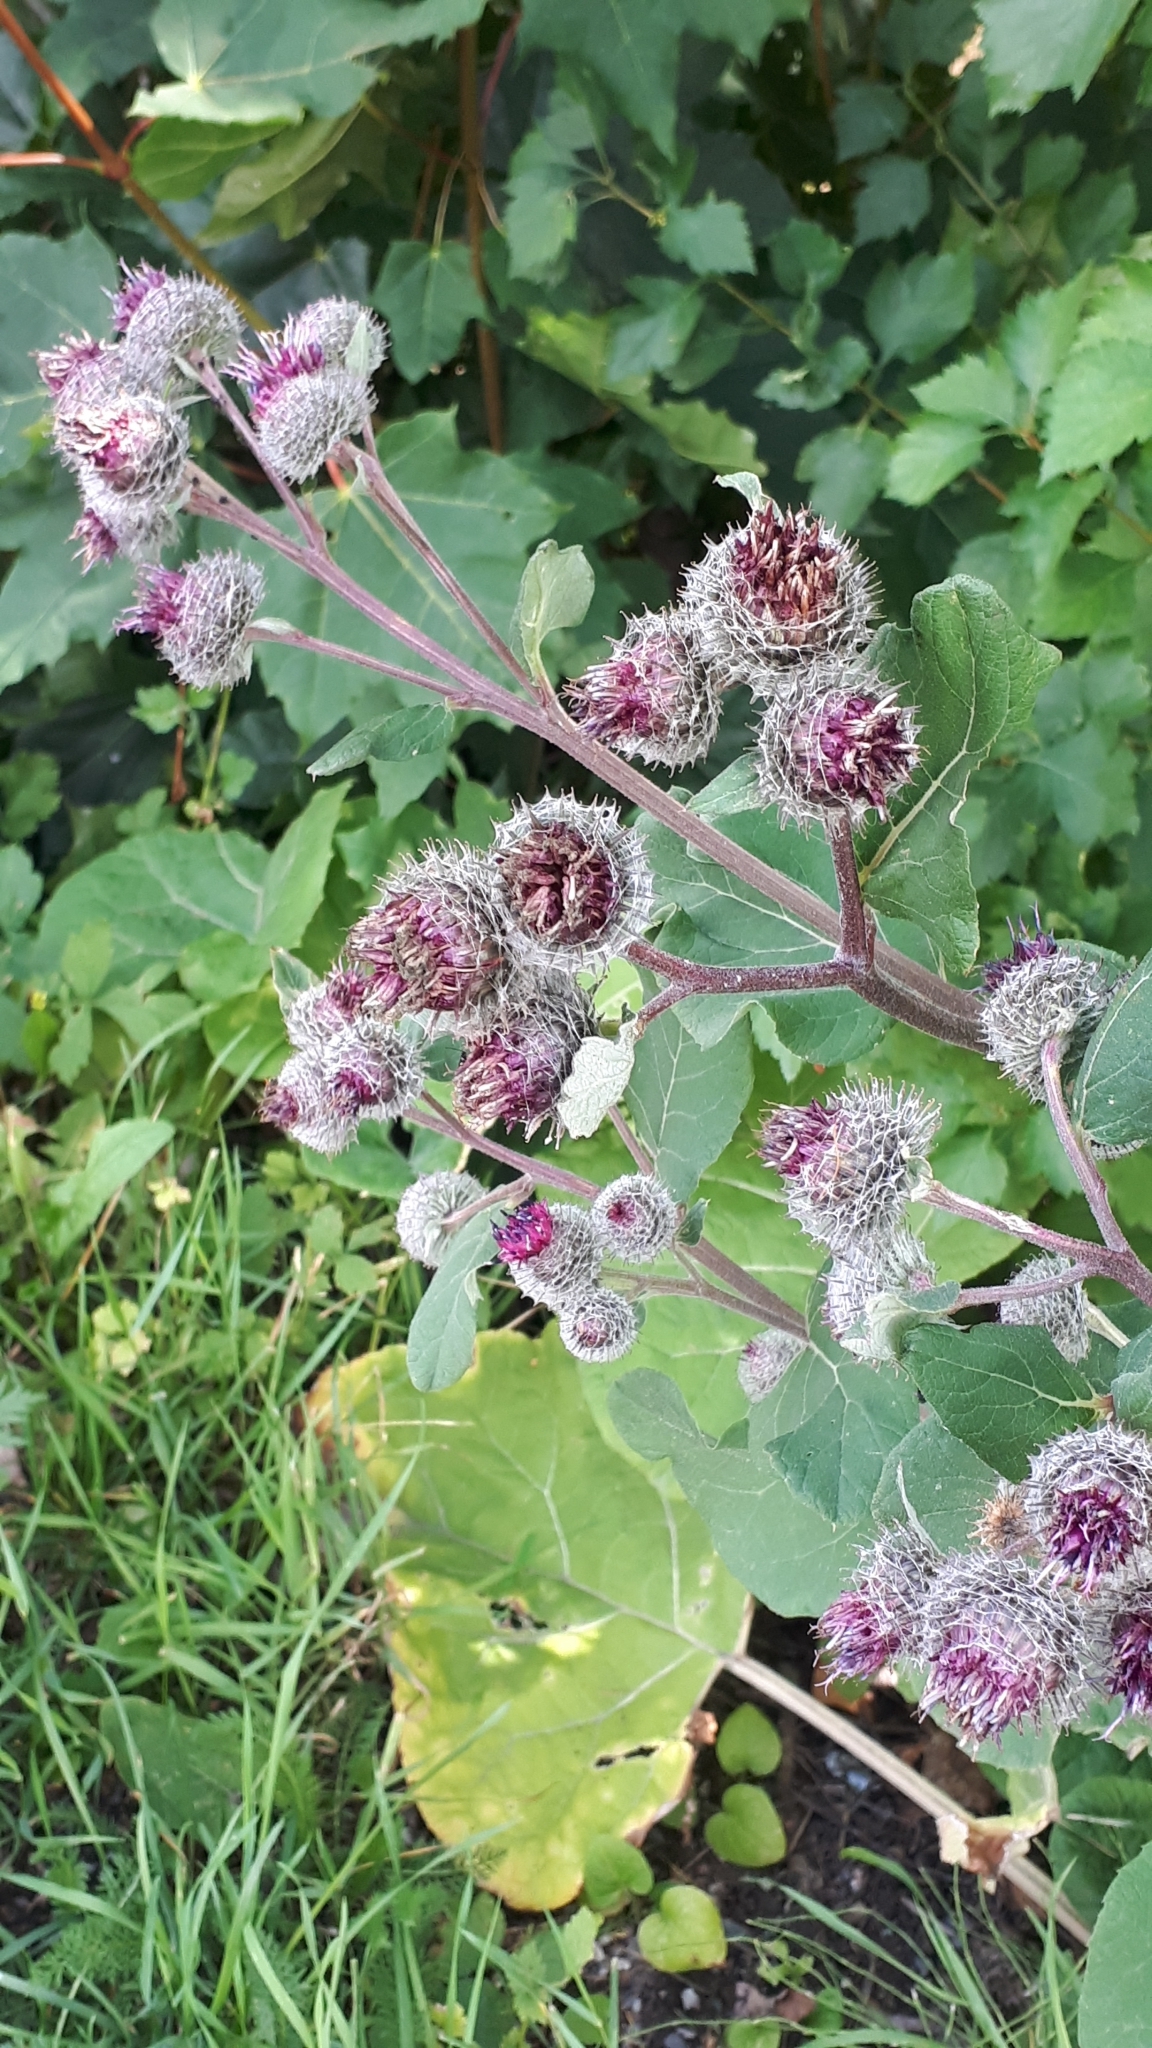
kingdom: Plantae
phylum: Tracheophyta
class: Magnoliopsida
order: Asterales
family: Asteraceae
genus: Arctium
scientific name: Arctium tomentosum
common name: Woolly burdock
